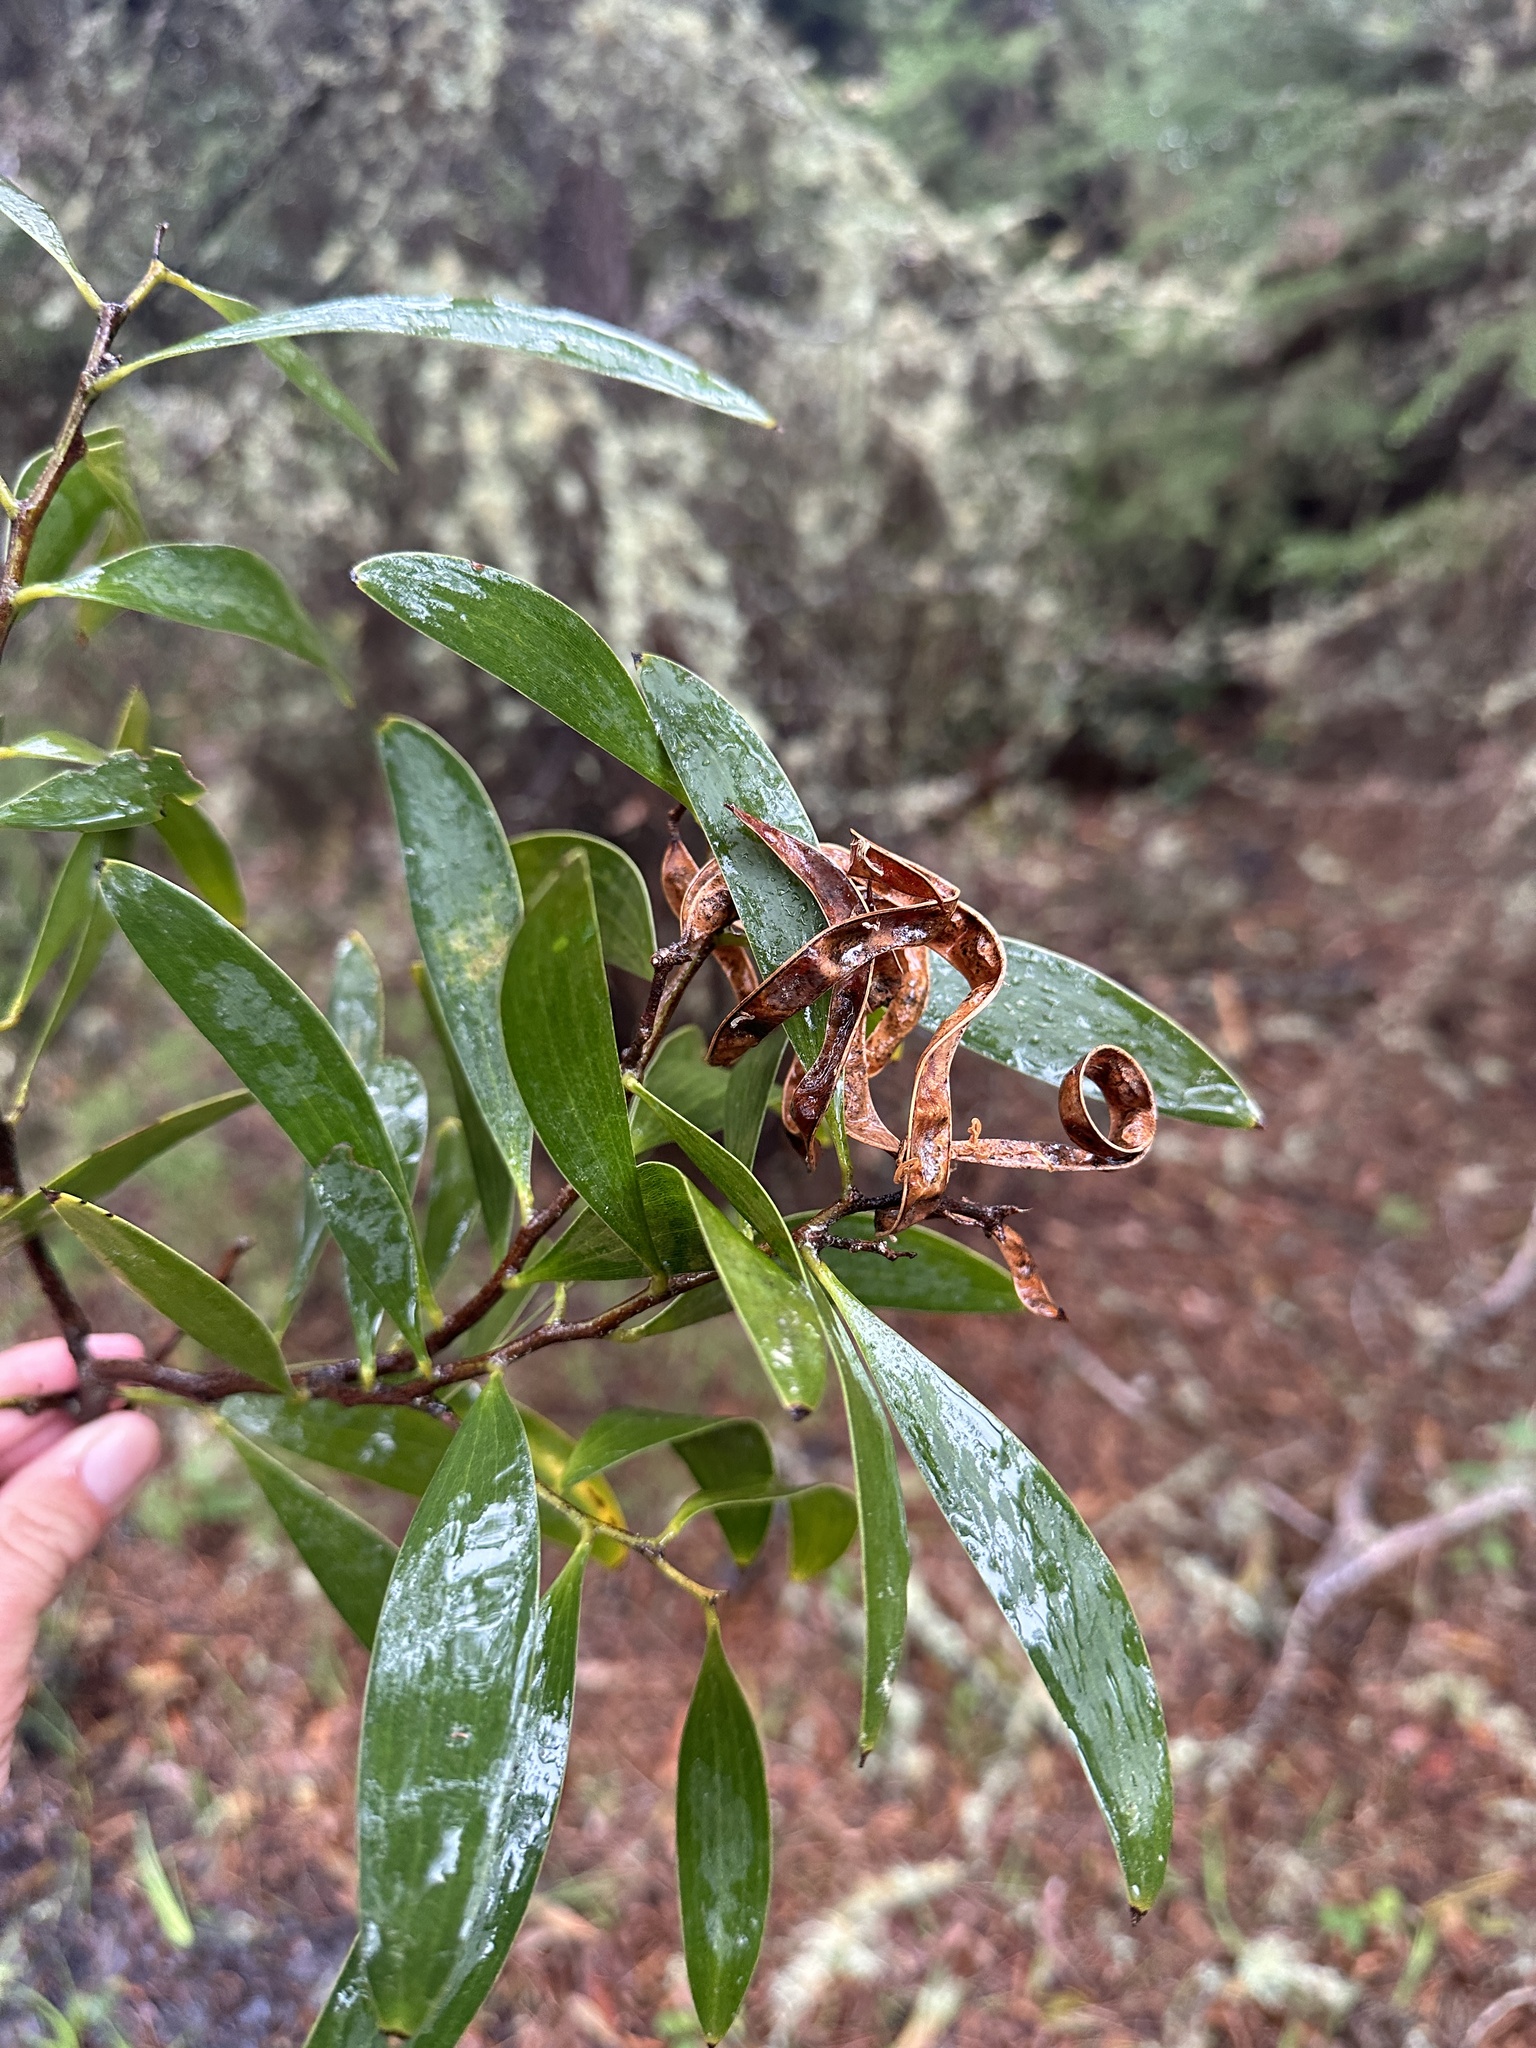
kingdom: Plantae
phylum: Tracheophyta
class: Magnoliopsida
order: Fabales
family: Fabaceae
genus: Acacia
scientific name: Acacia longifolia
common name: Sydney golden wattle
